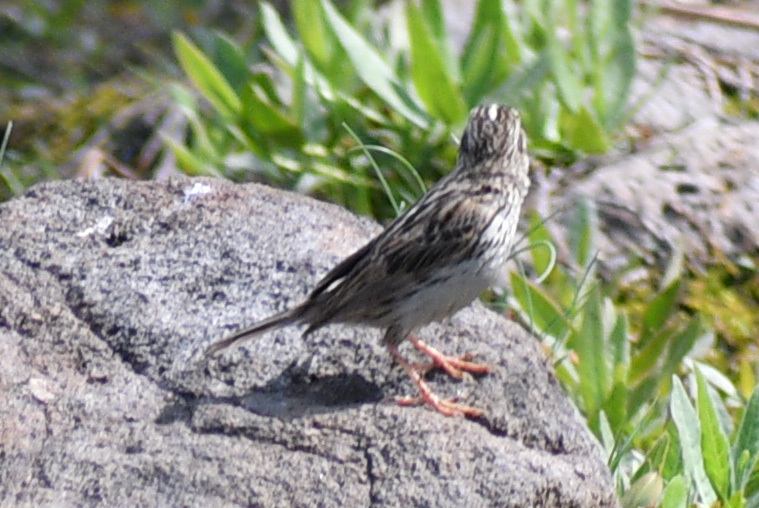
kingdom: Animalia
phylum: Chordata
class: Aves
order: Passeriformes
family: Passerellidae
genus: Passerculus
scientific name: Passerculus sandwichensis
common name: Savannah sparrow
